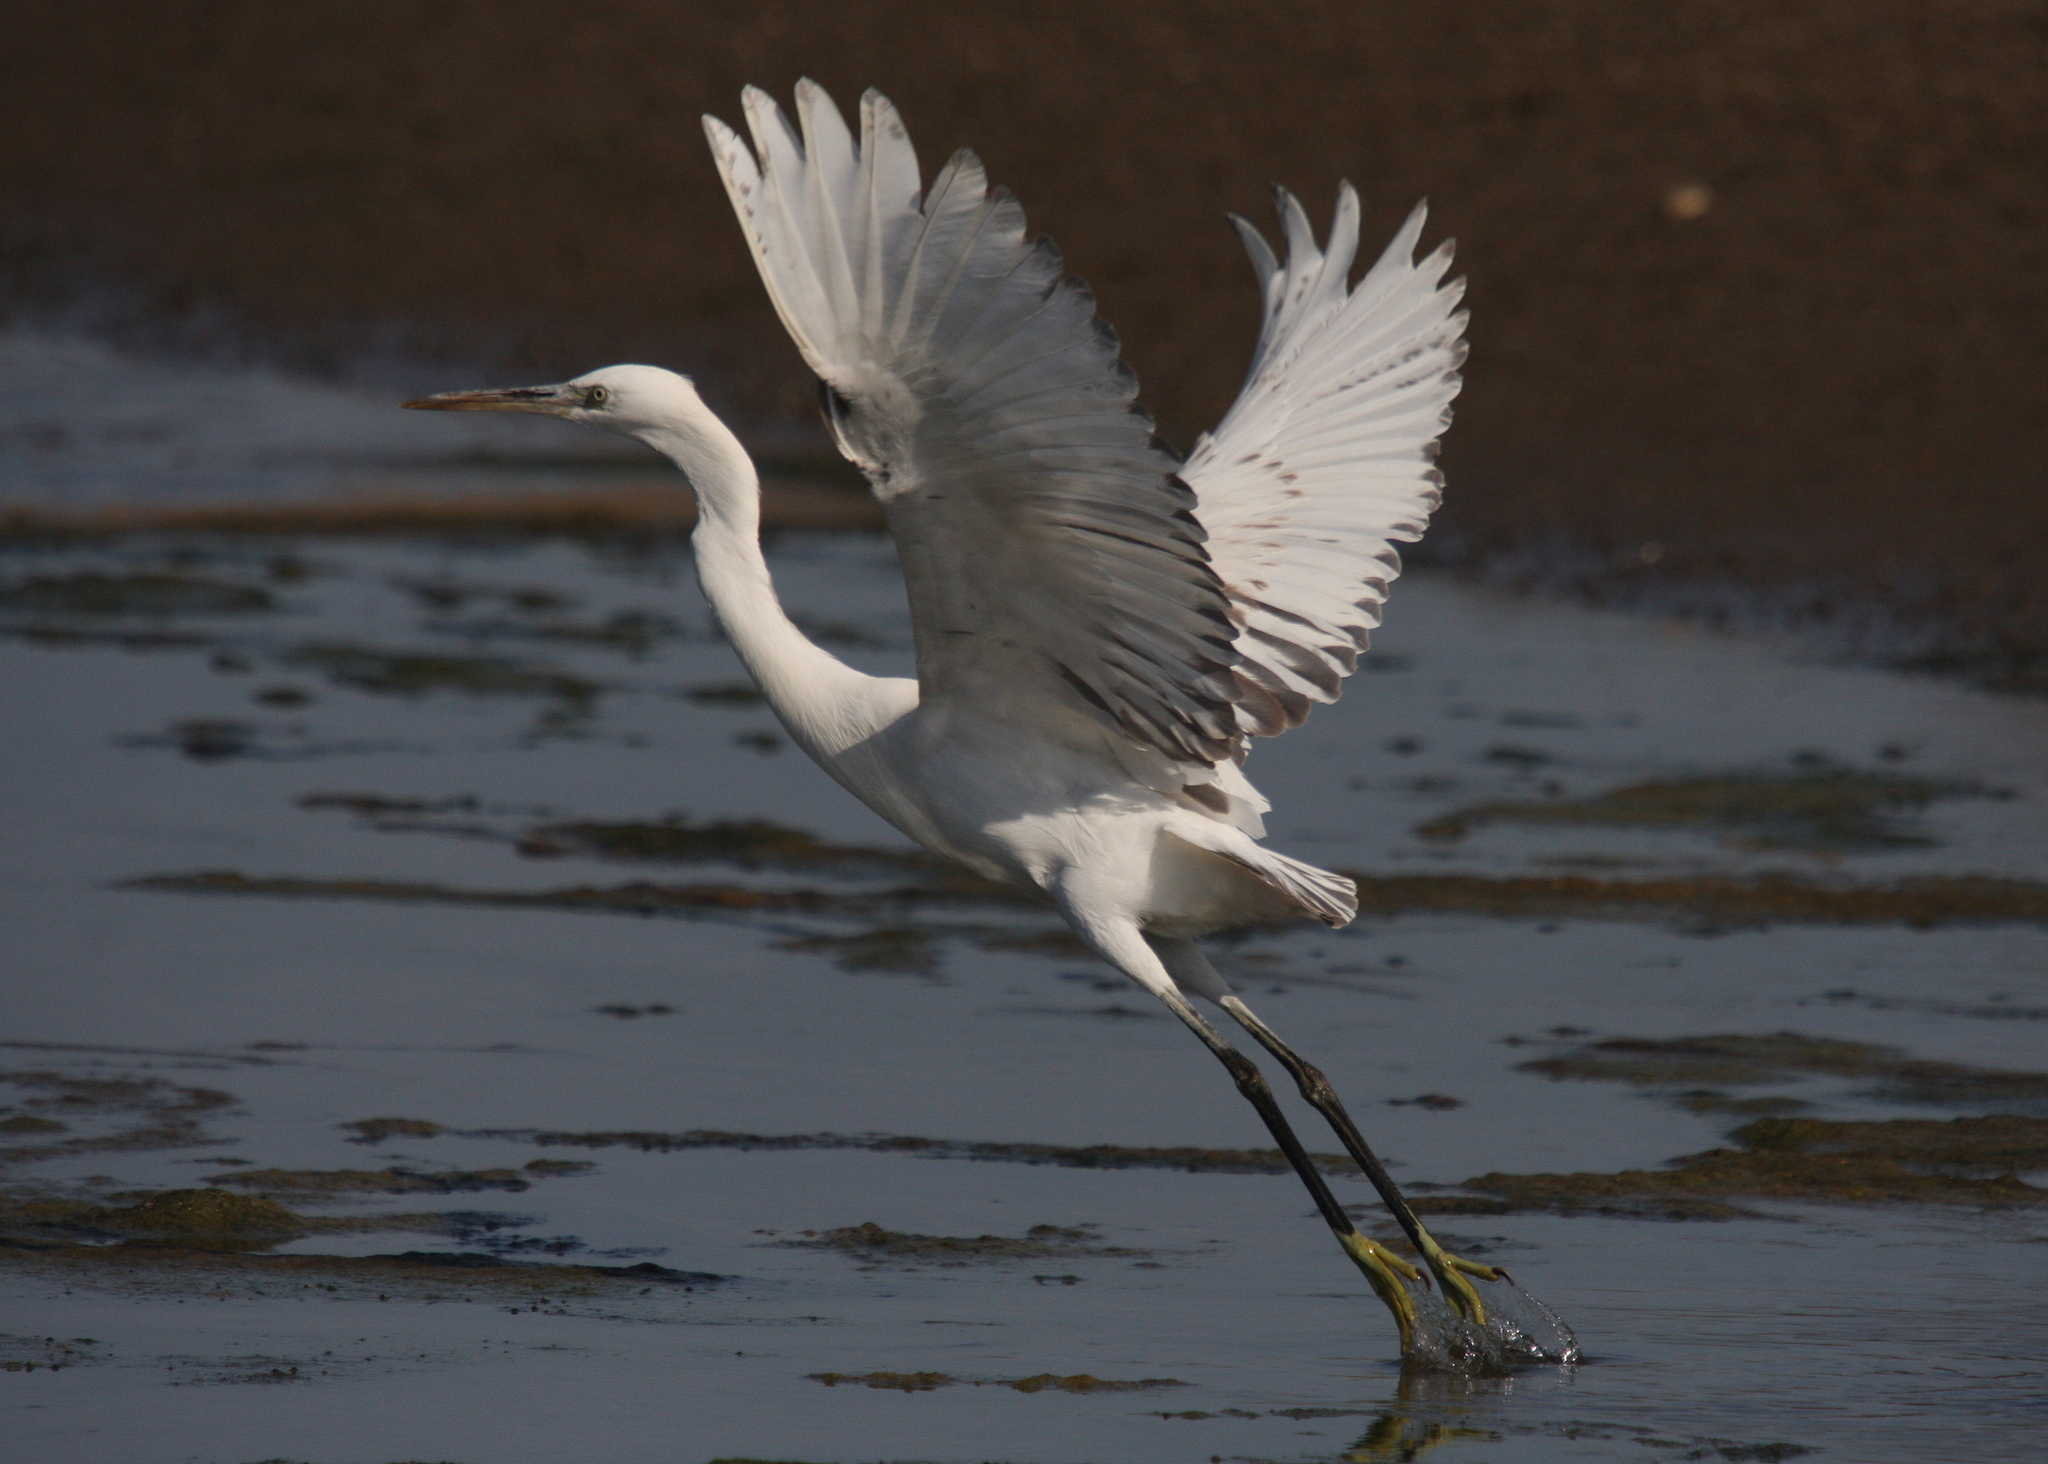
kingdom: Animalia
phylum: Chordata
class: Aves
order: Pelecaniformes
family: Ardeidae
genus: Egretta
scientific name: Egretta gularis
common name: Western reef-heron
